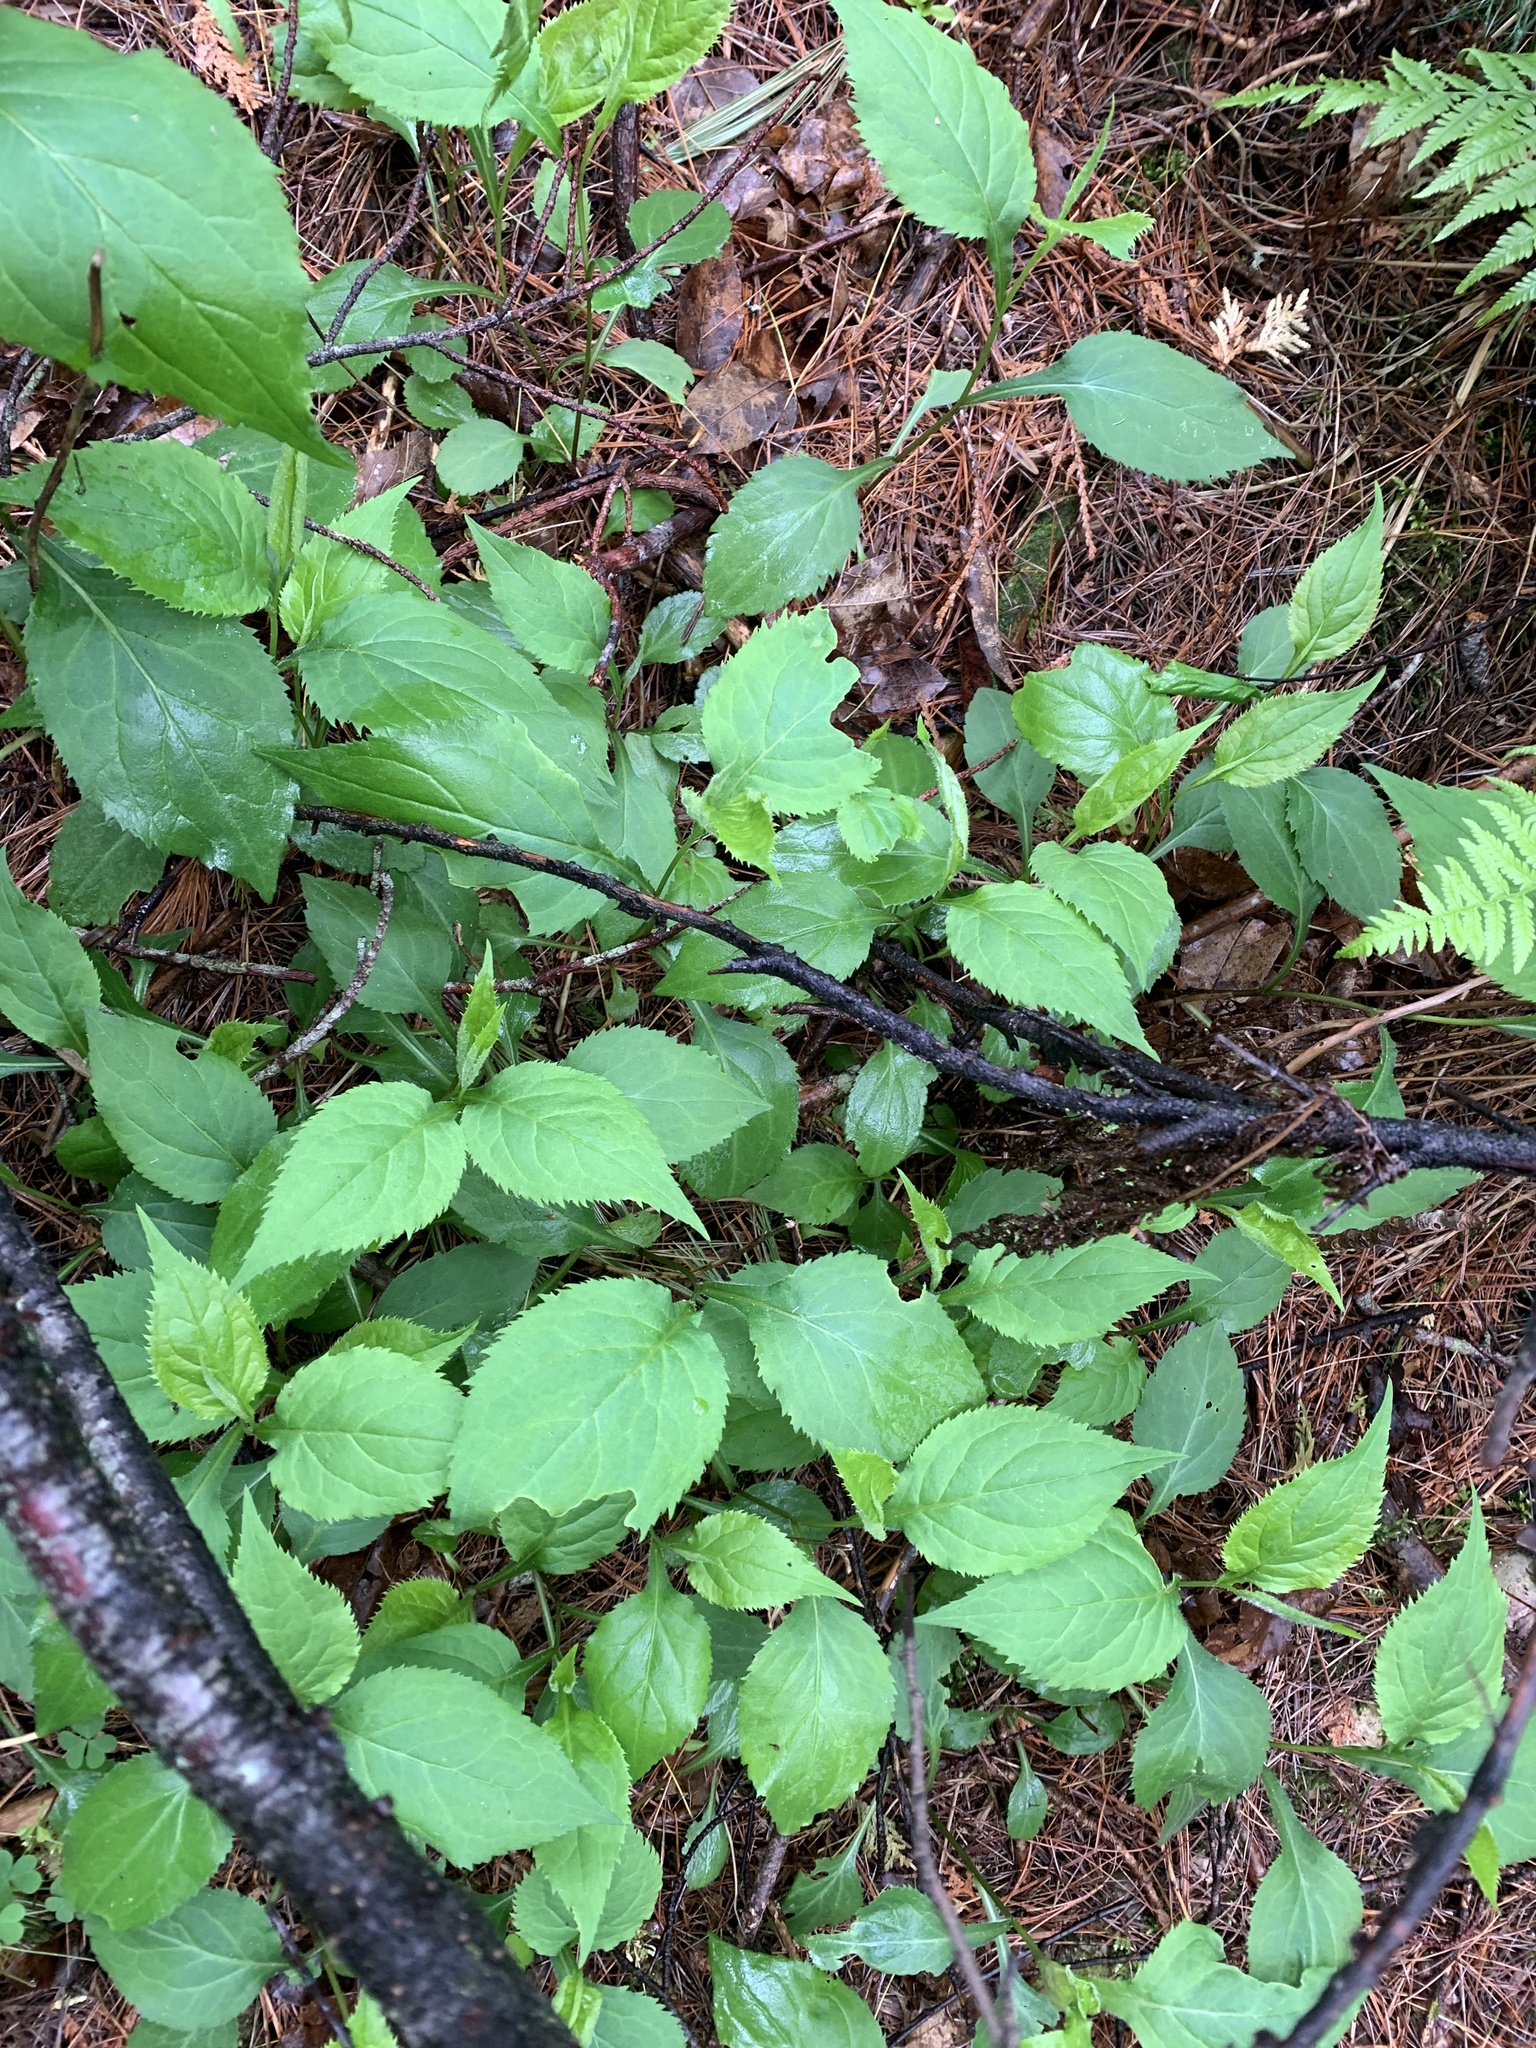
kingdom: Plantae
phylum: Tracheophyta
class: Magnoliopsida
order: Asterales
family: Asteraceae
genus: Solidago
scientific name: Solidago flexicaulis
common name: Zig-zag goldenrod
